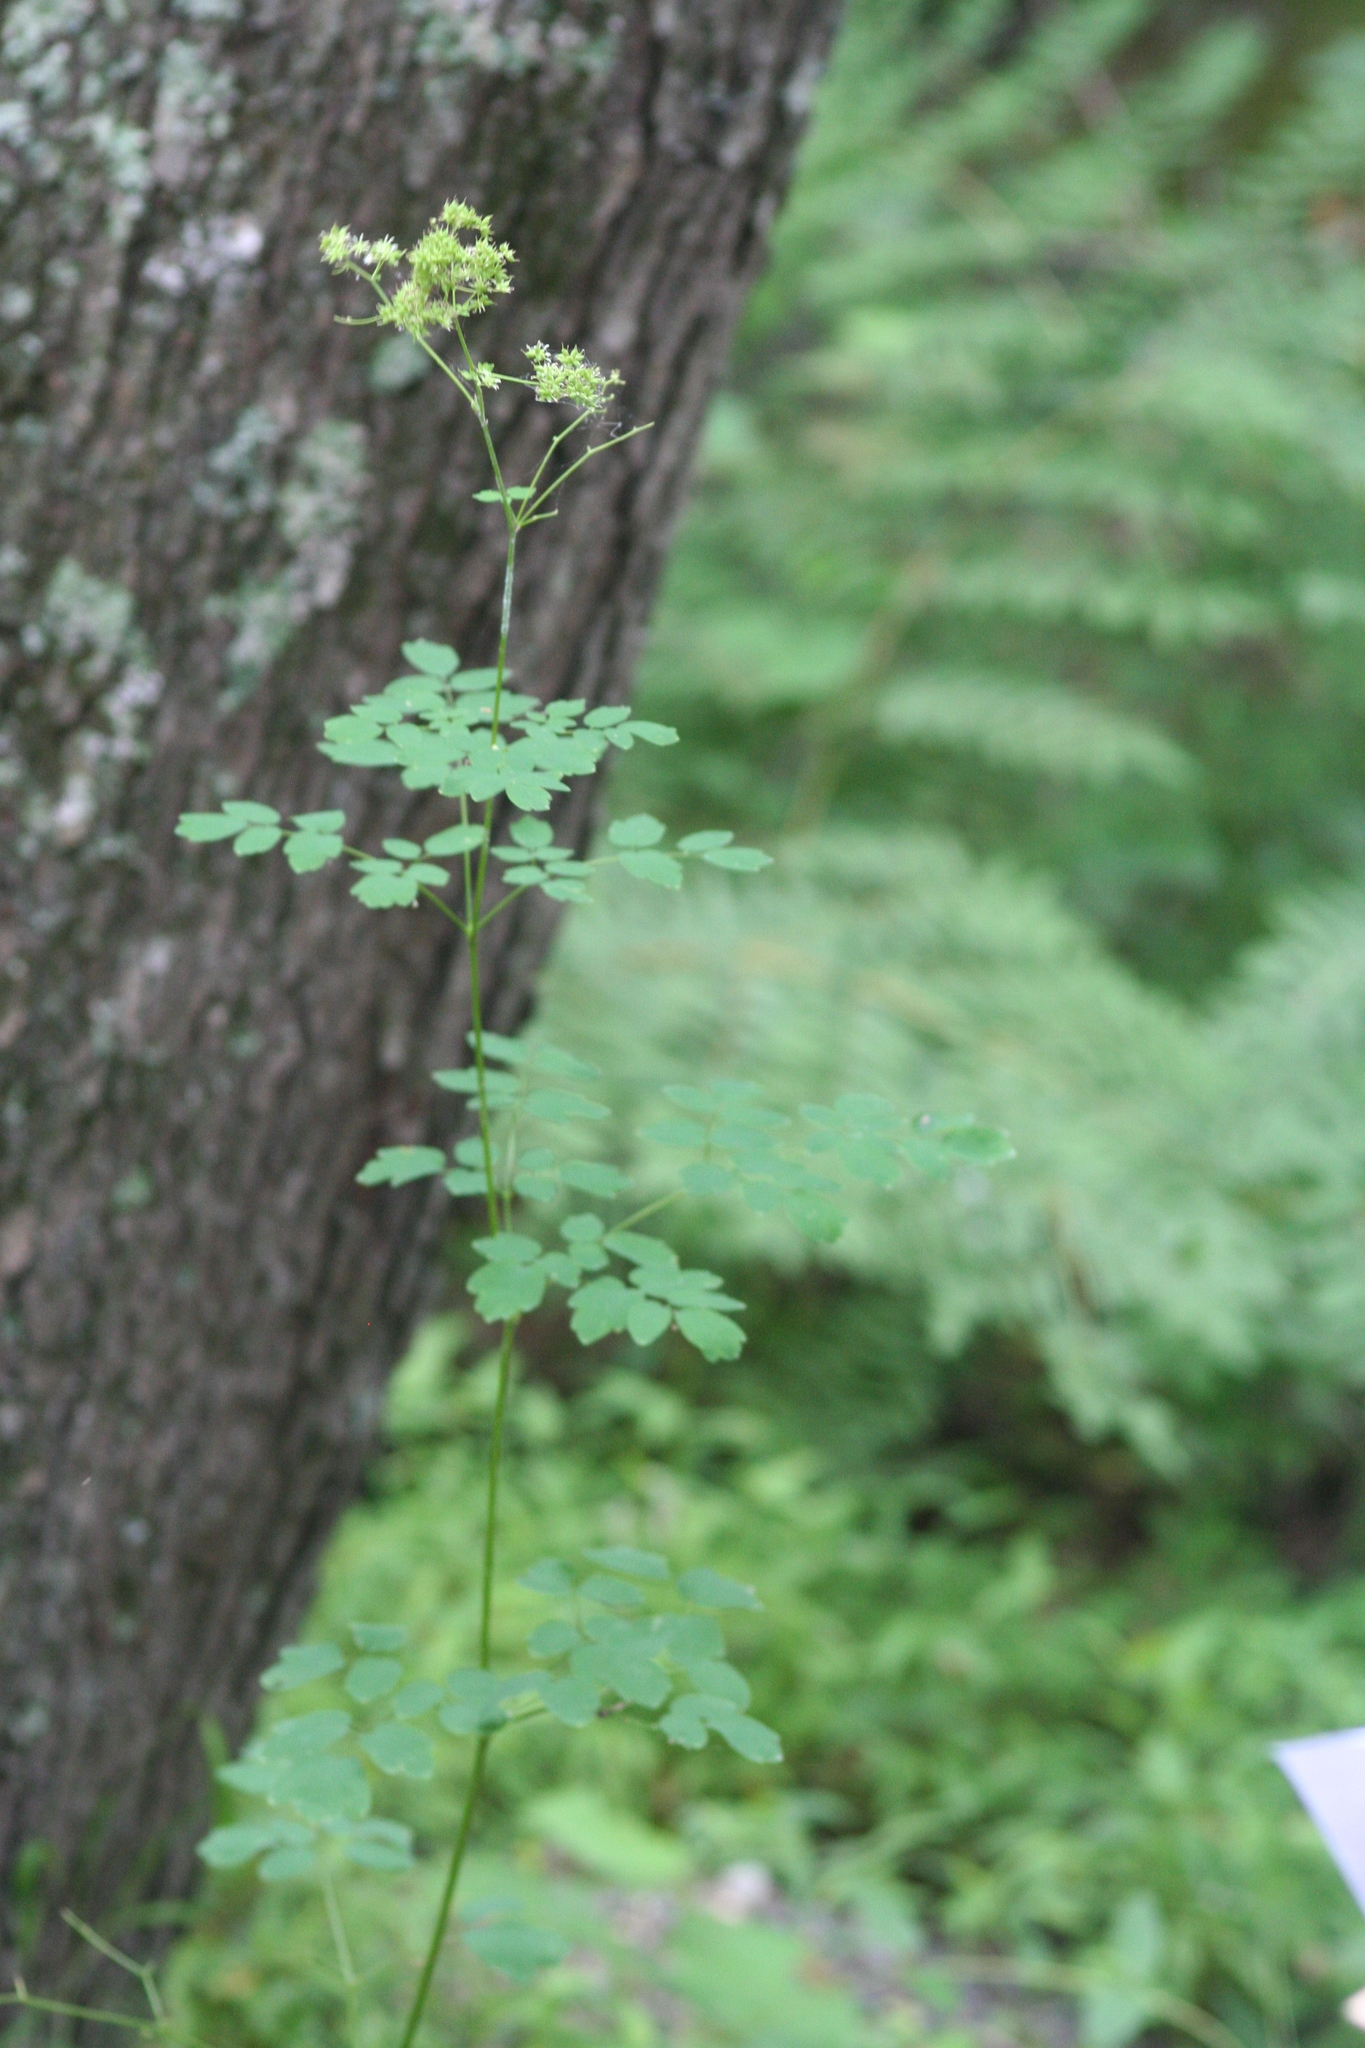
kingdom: Plantae
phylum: Tracheophyta
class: Magnoliopsida
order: Ranunculales
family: Ranunculaceae
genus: Thalictrum
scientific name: Thalictrum pubescens
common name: King-of-the-meadow
